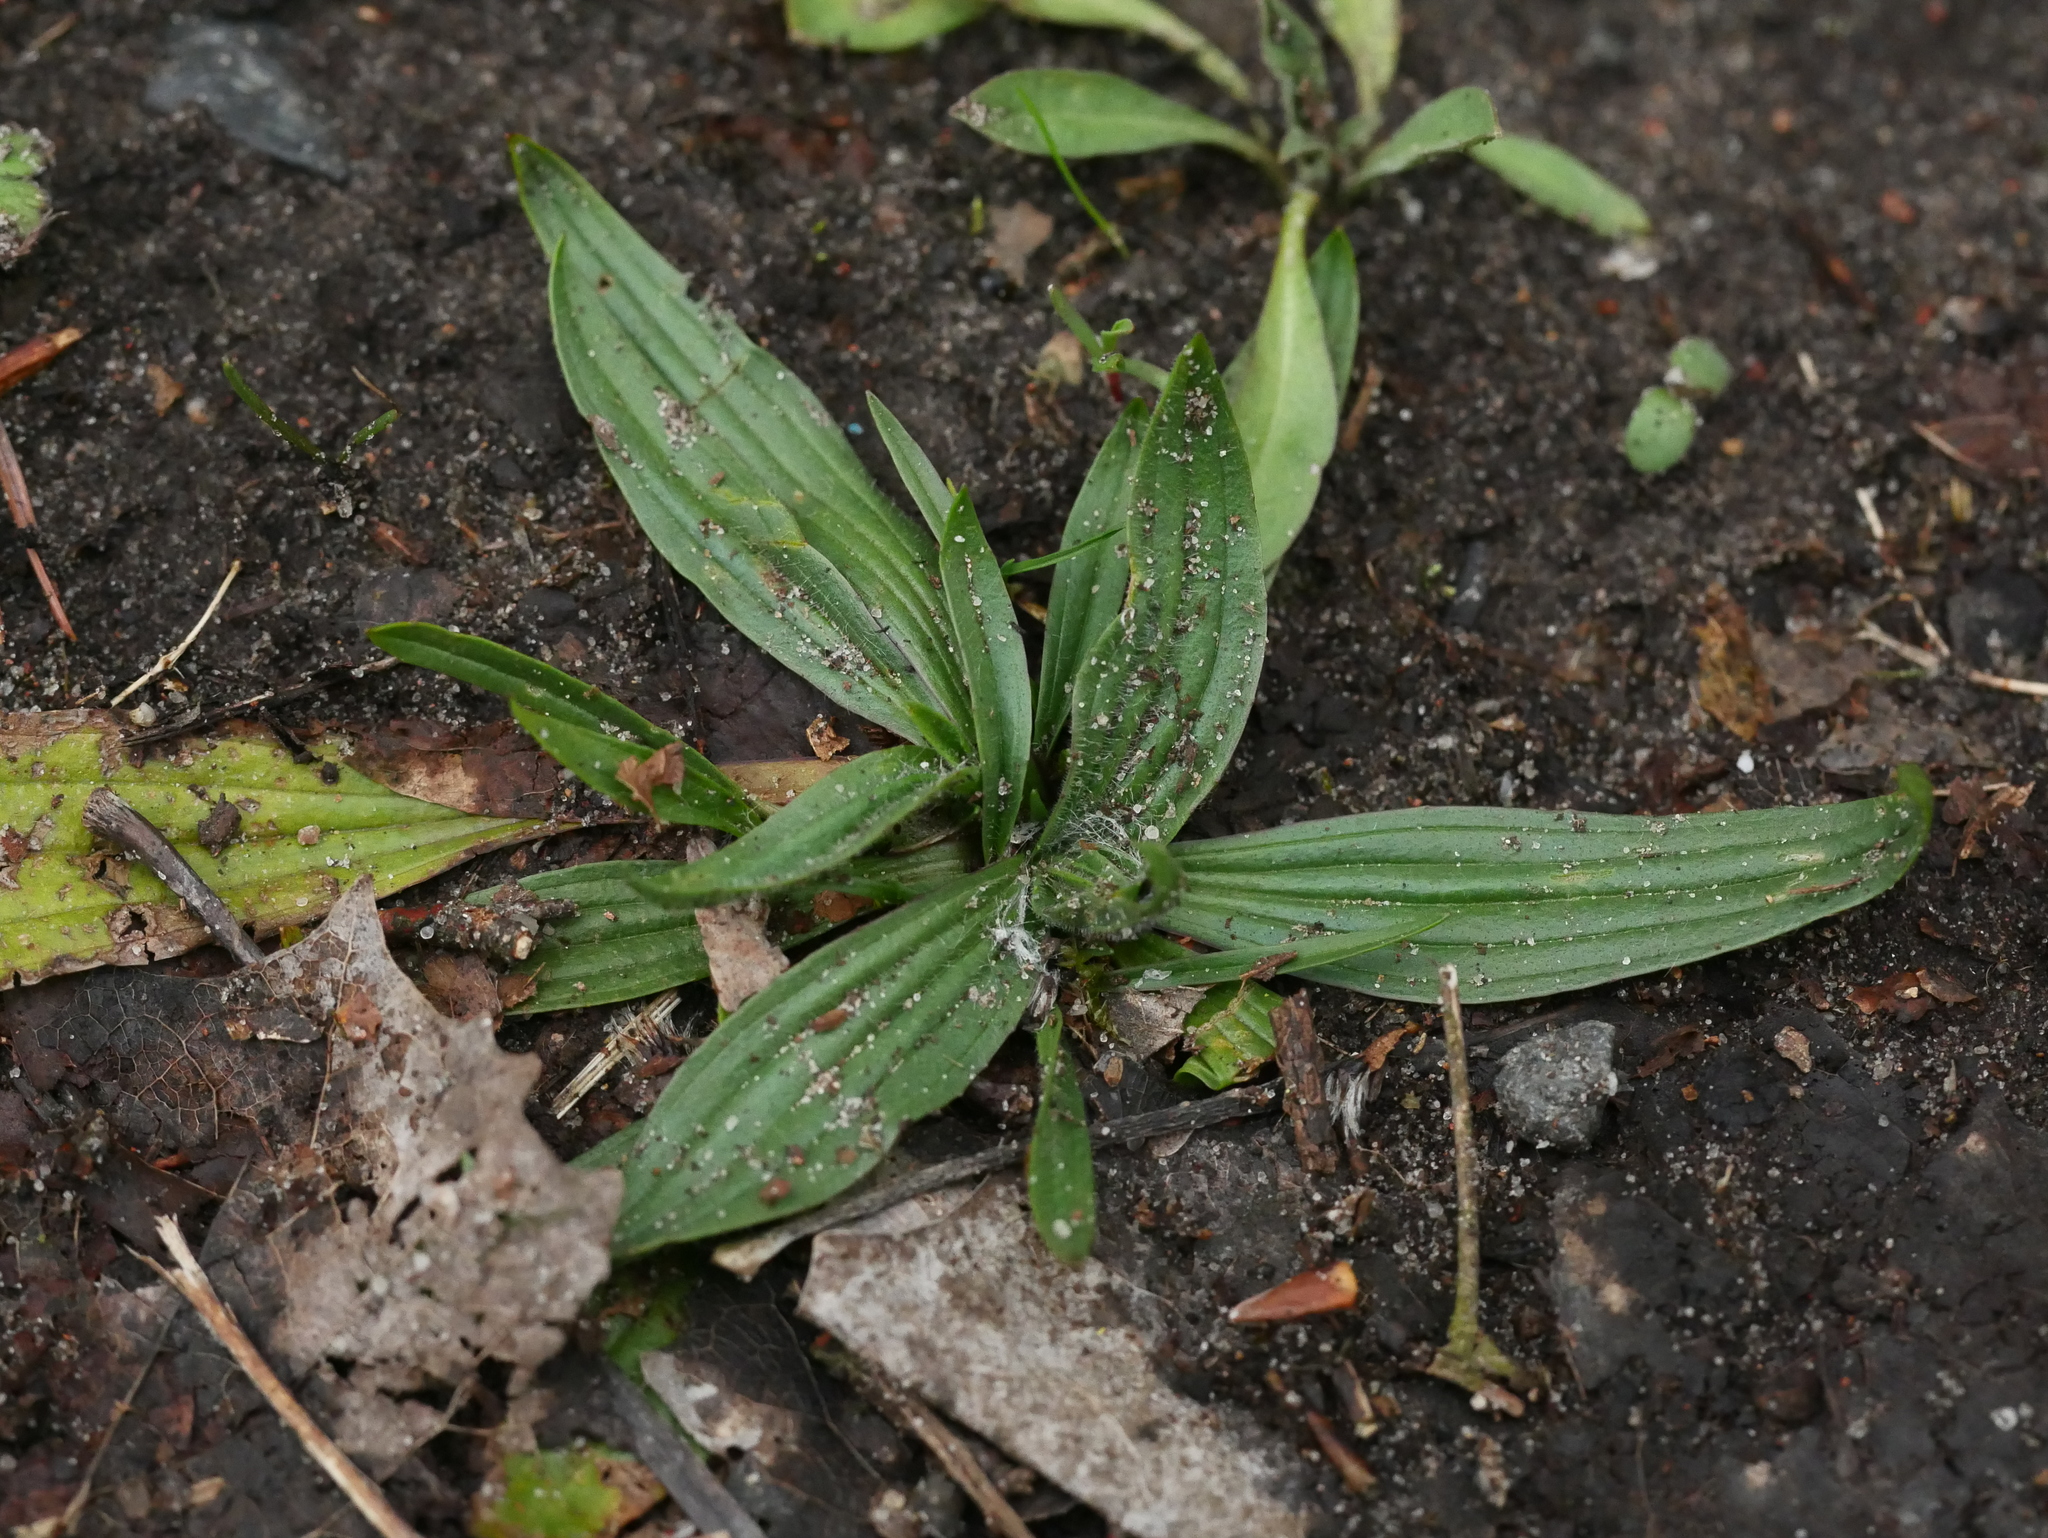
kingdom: Plantae
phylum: Tracheophyta
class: Magnoliopsida
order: Lamiales
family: Plantaginaceae
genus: Plantago
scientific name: Plantago lanceolata
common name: Ribwort plantain
